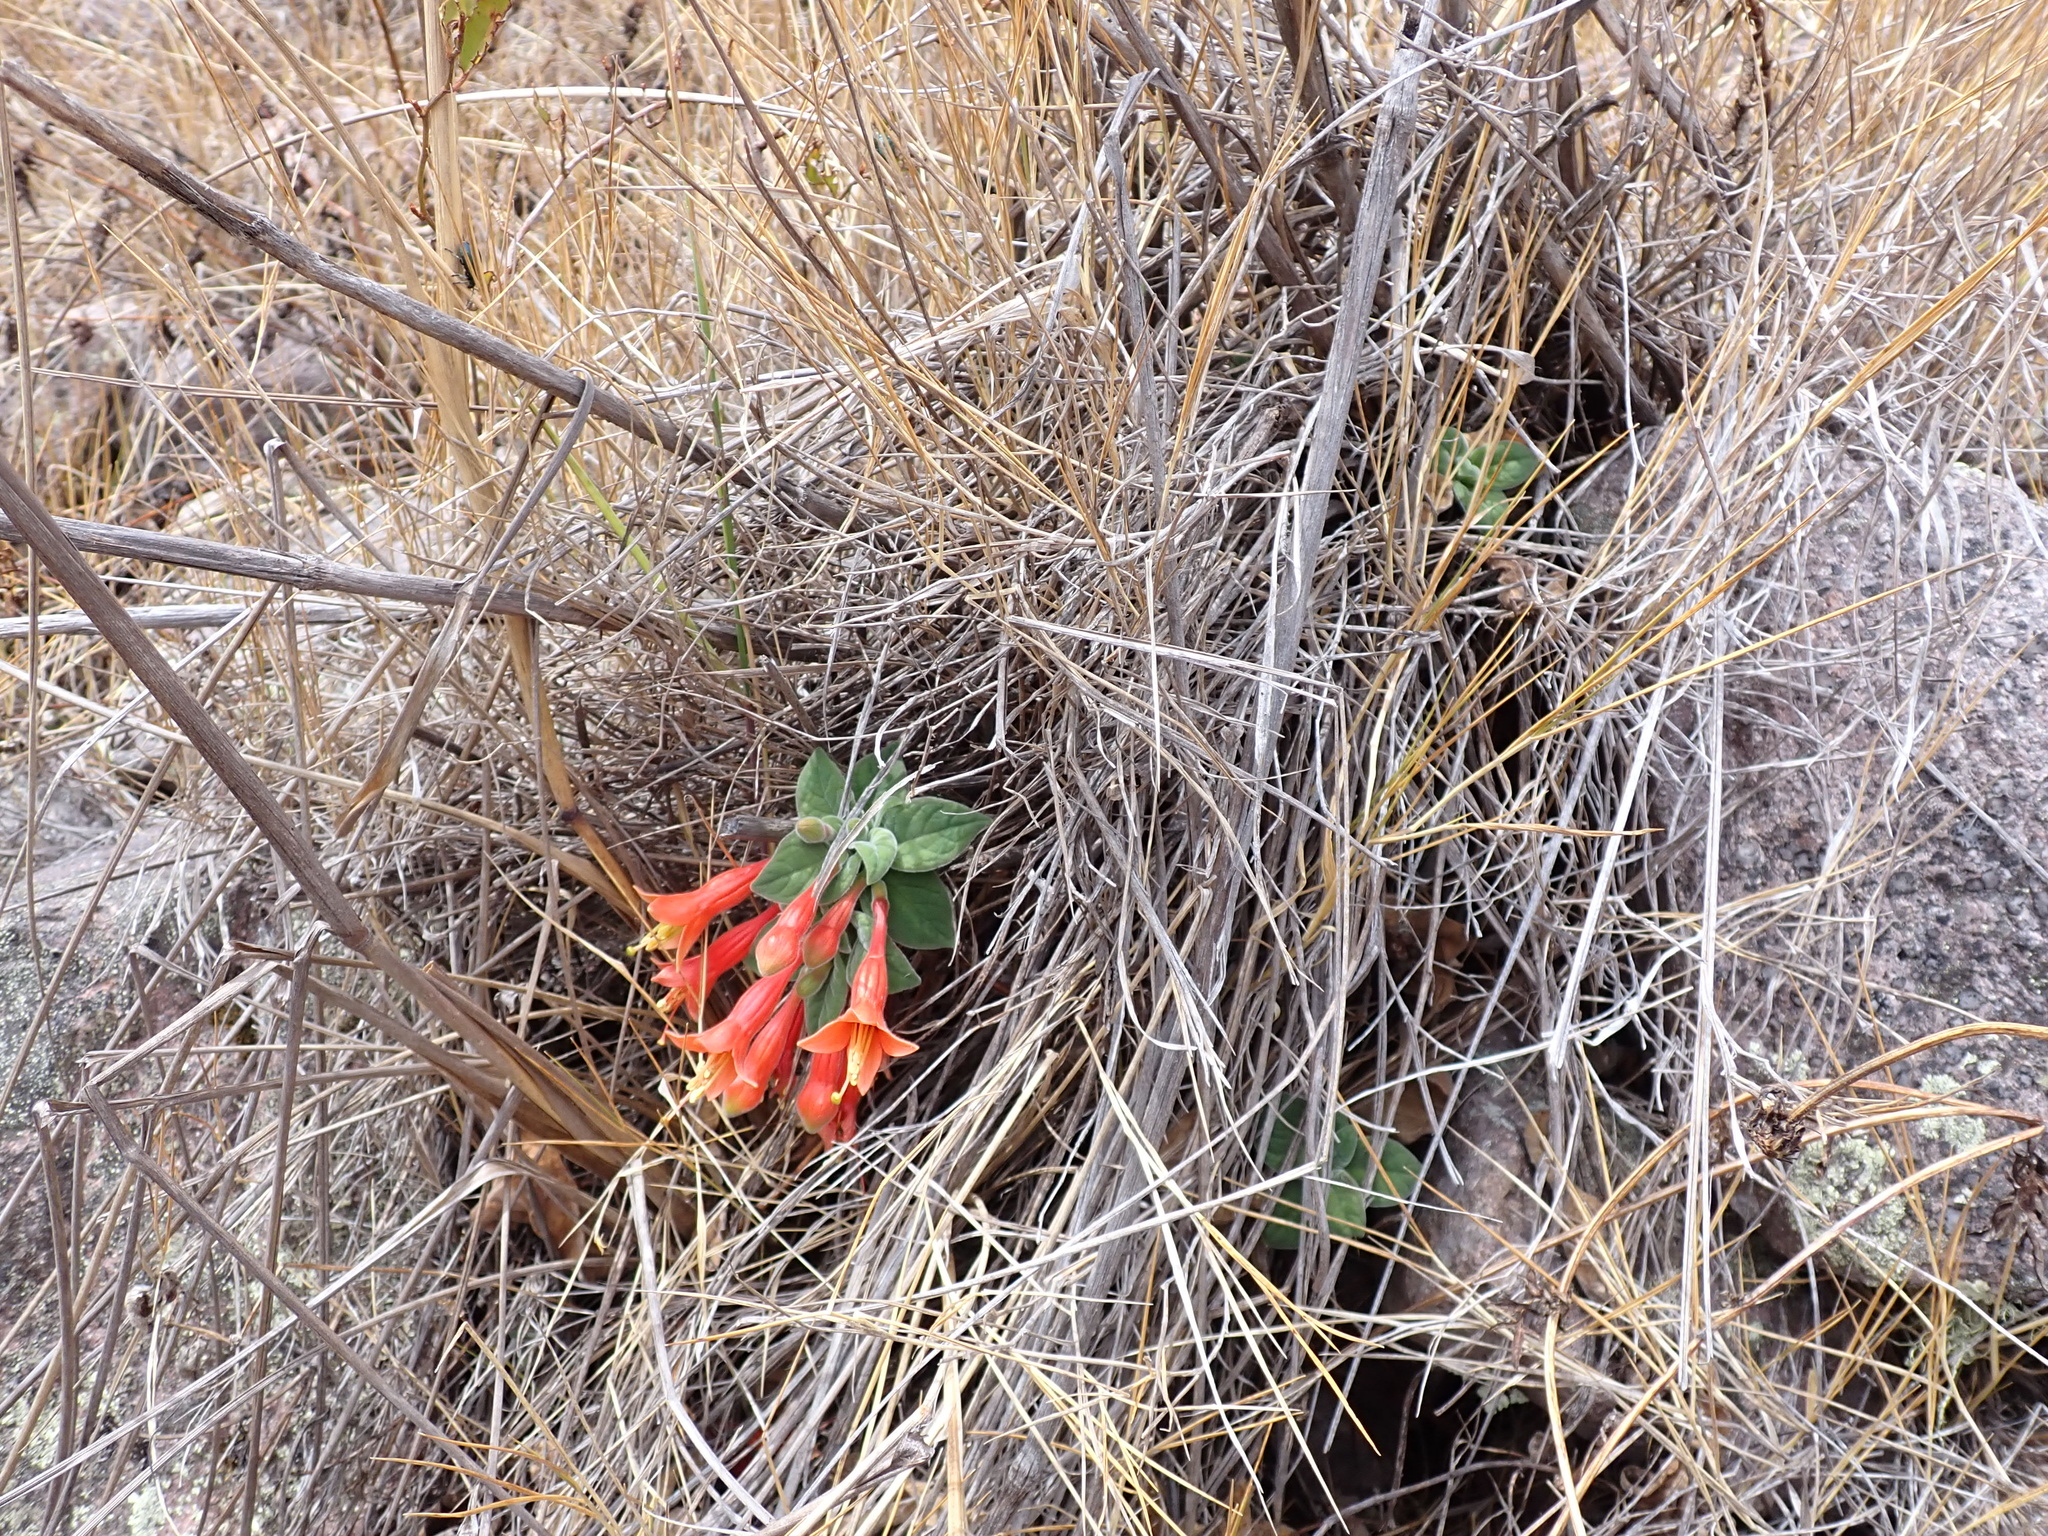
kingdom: Plantae
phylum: Tracheophyta
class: Magnoliopsida
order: Myrtales
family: Onagraceae
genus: Fuchsia
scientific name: Fuchsia apetala
